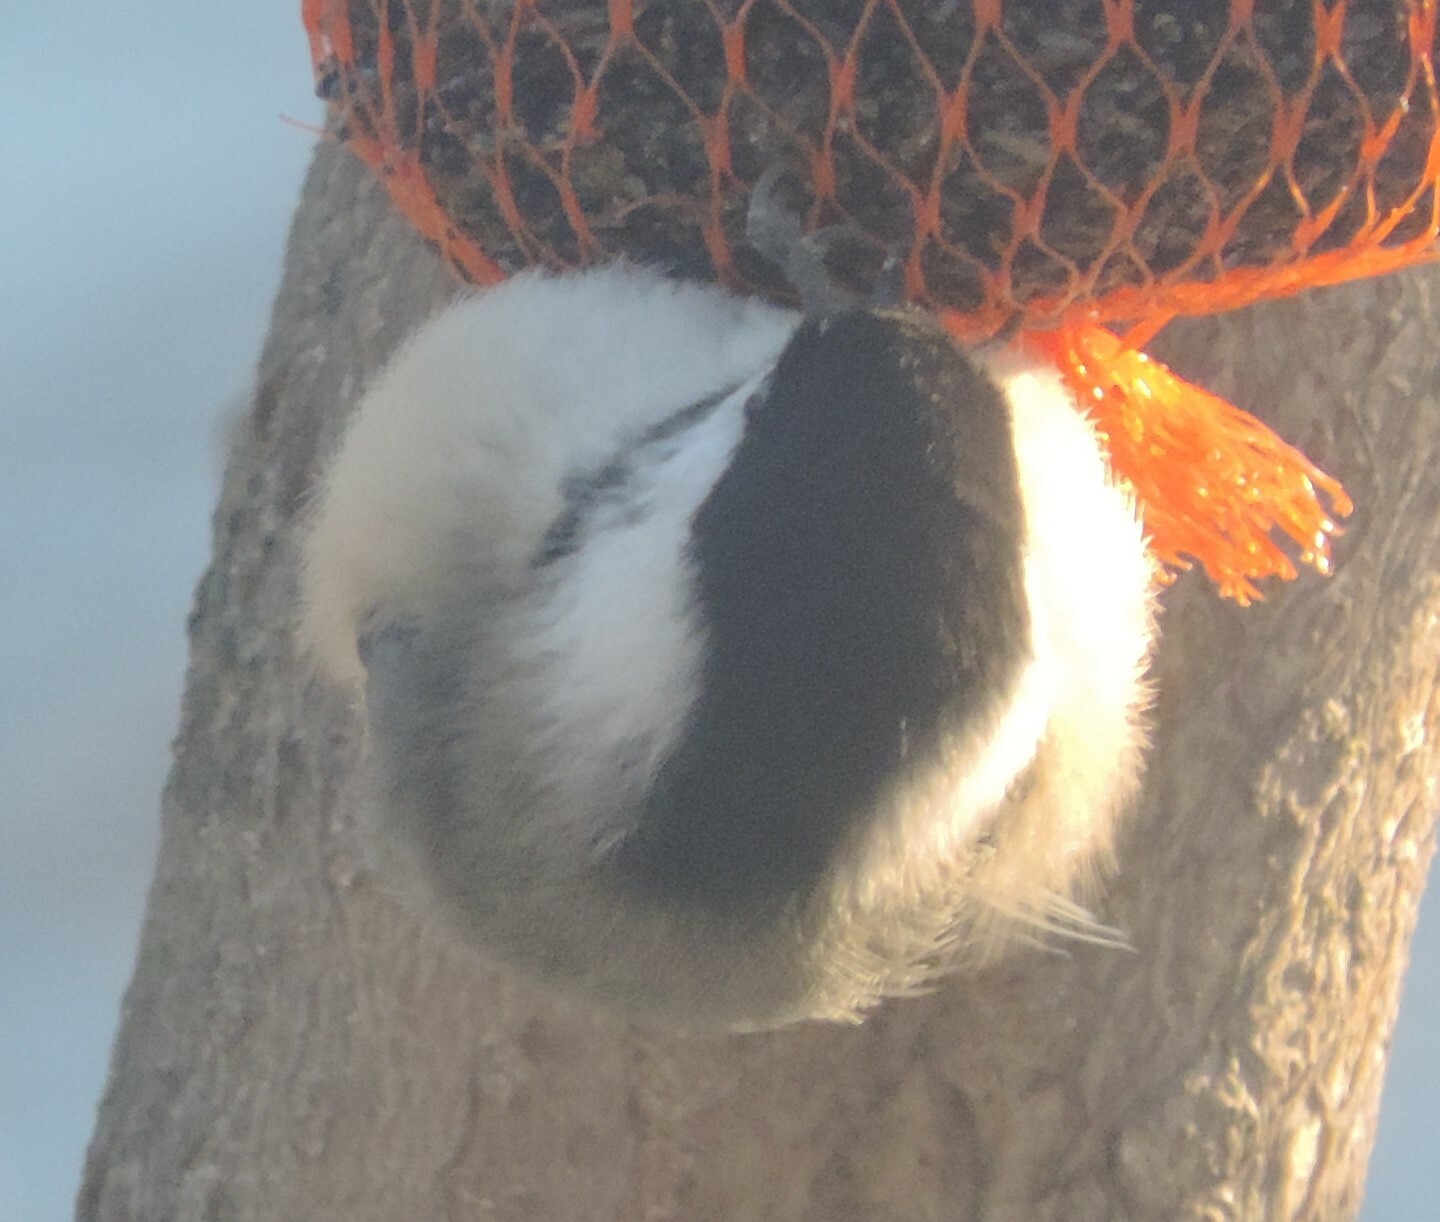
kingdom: Animalia
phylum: Chordata
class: Aves
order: Passeriformes
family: Paridae
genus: Poecile
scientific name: Poecile atricapillus
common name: Black-capped chickadee
